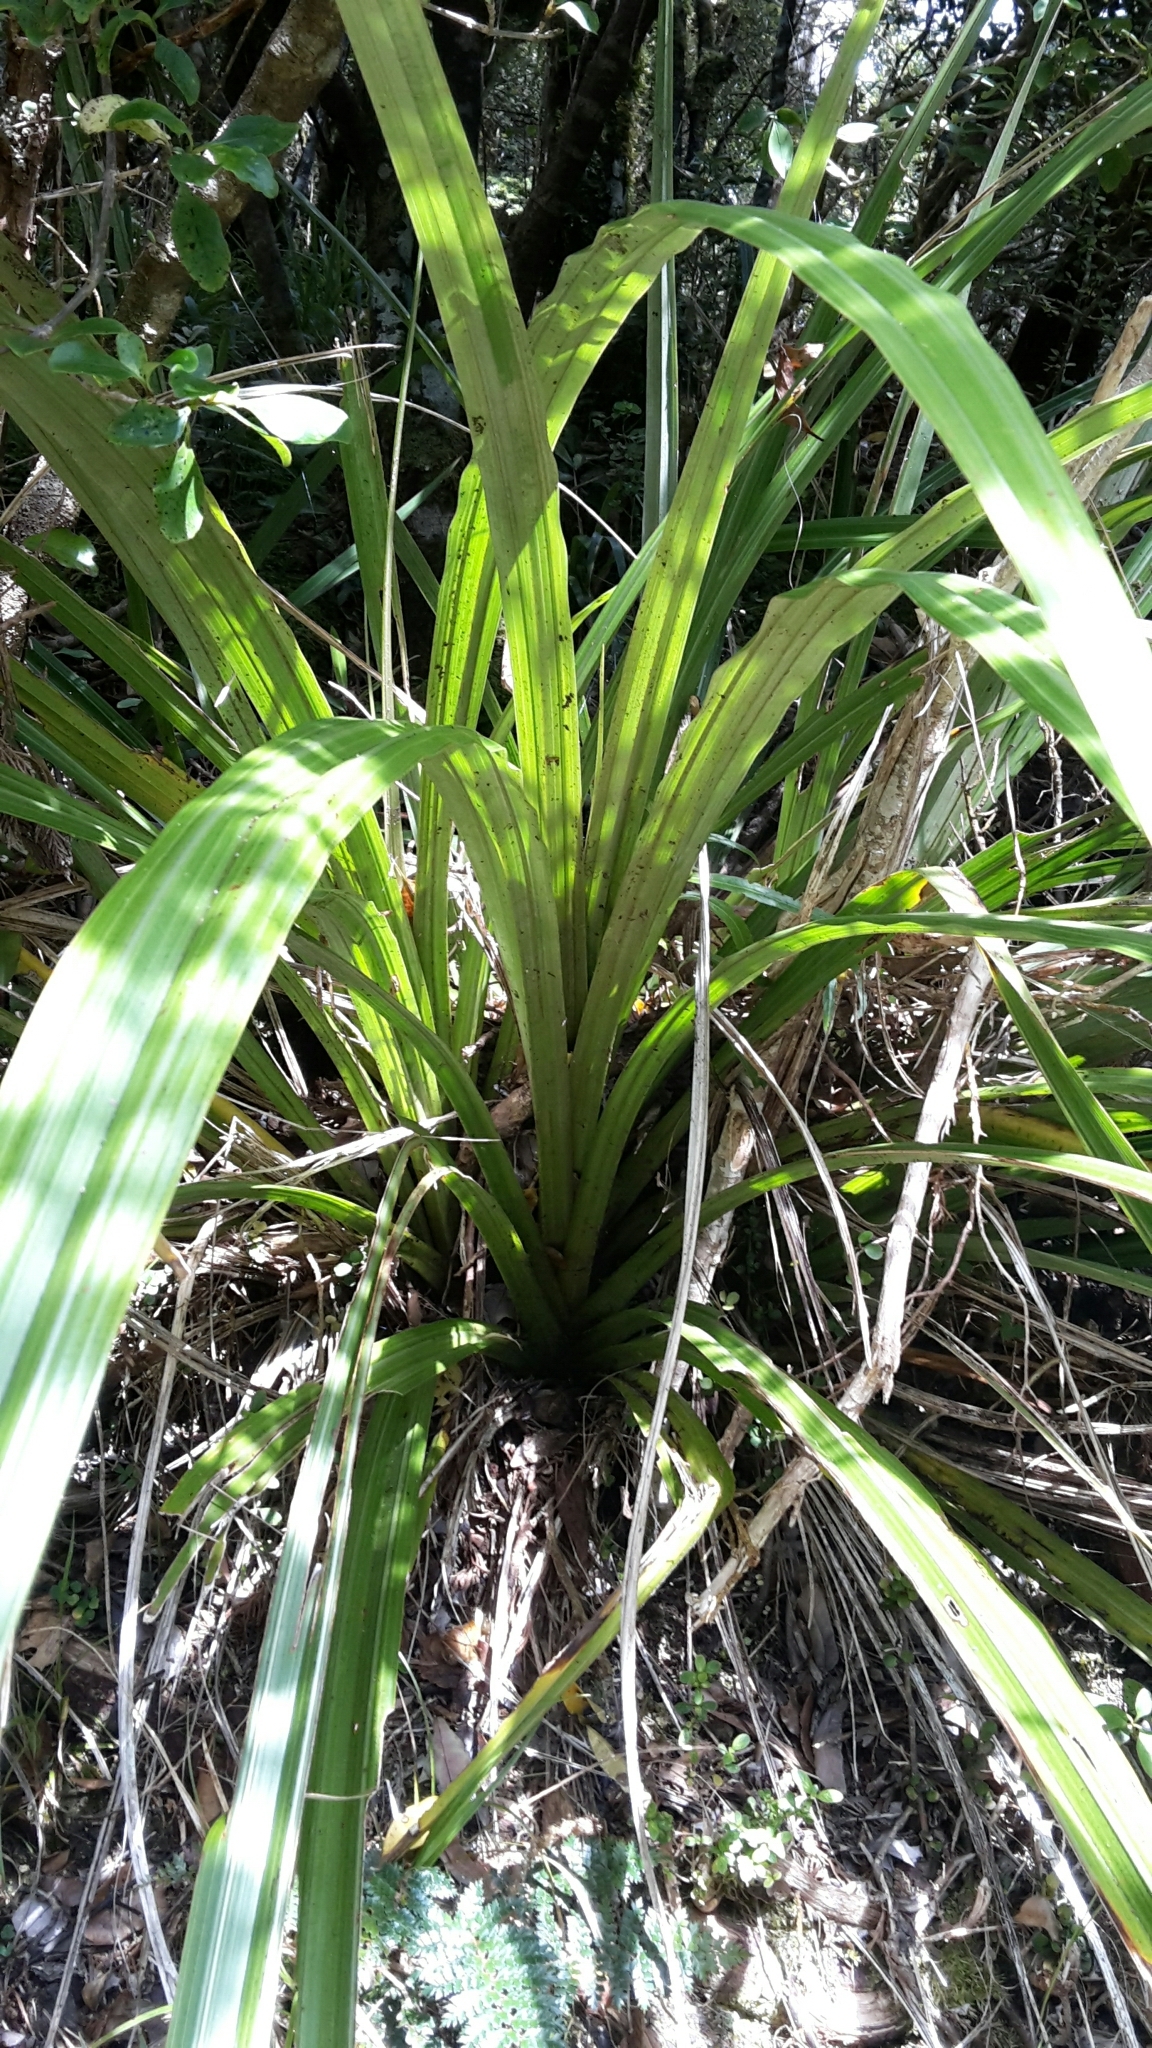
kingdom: Plantae
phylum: Tracheophyta
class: Liliopsida
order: Asparagales
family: Asteliaceae
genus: Astelia
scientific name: Astelia fragrans
